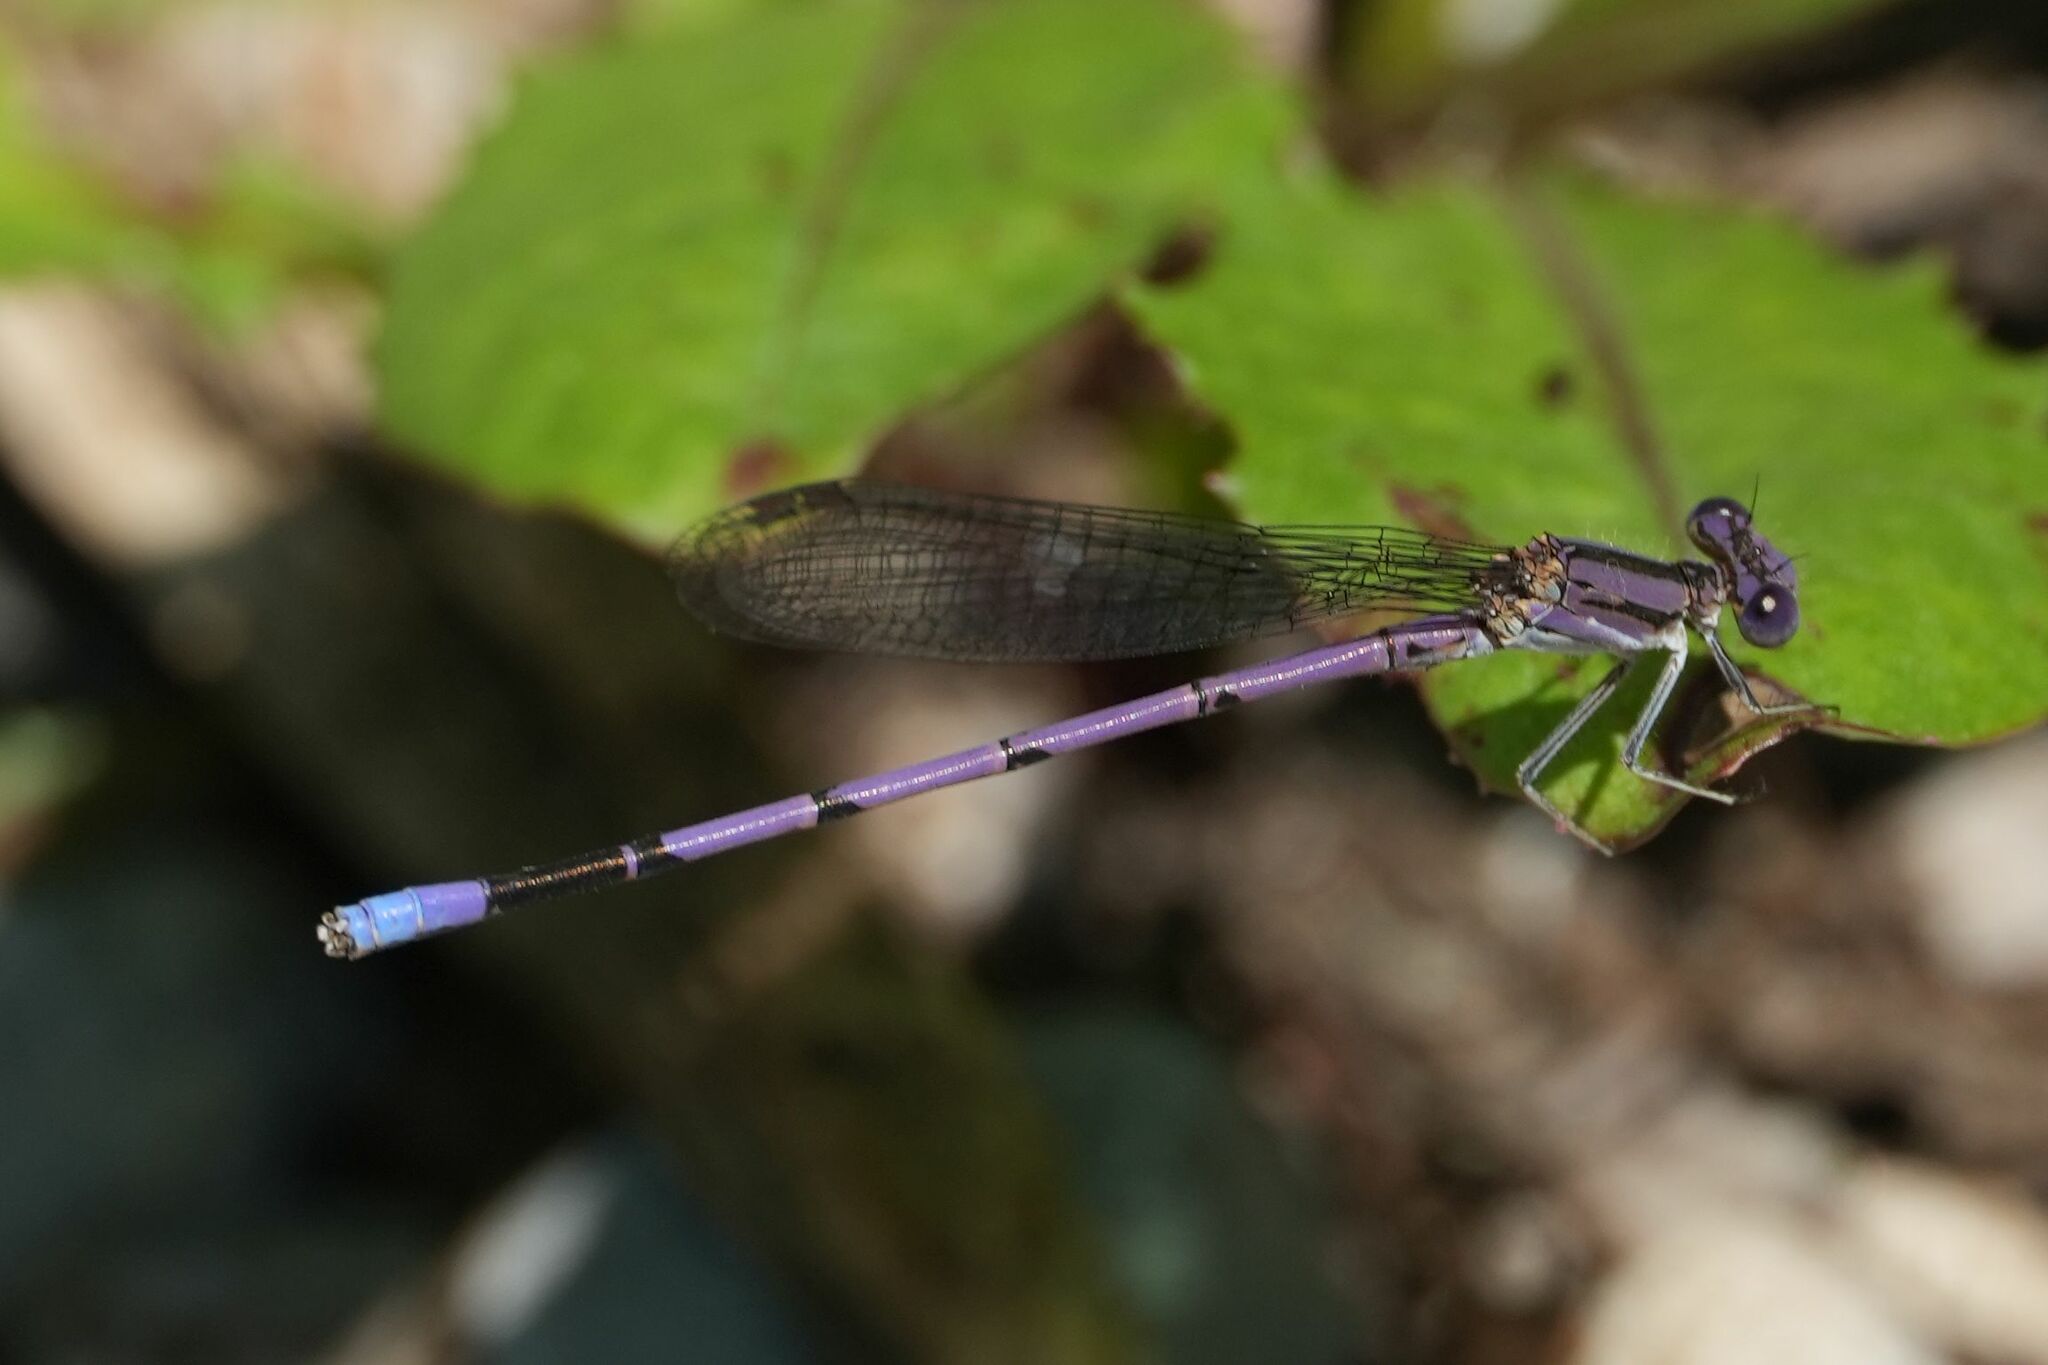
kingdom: Animalia
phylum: Arthropoda
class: Insecta
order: Odonata
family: Coenagrionidae
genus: Argia
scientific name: Argia fumipennis
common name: Variable dancer
